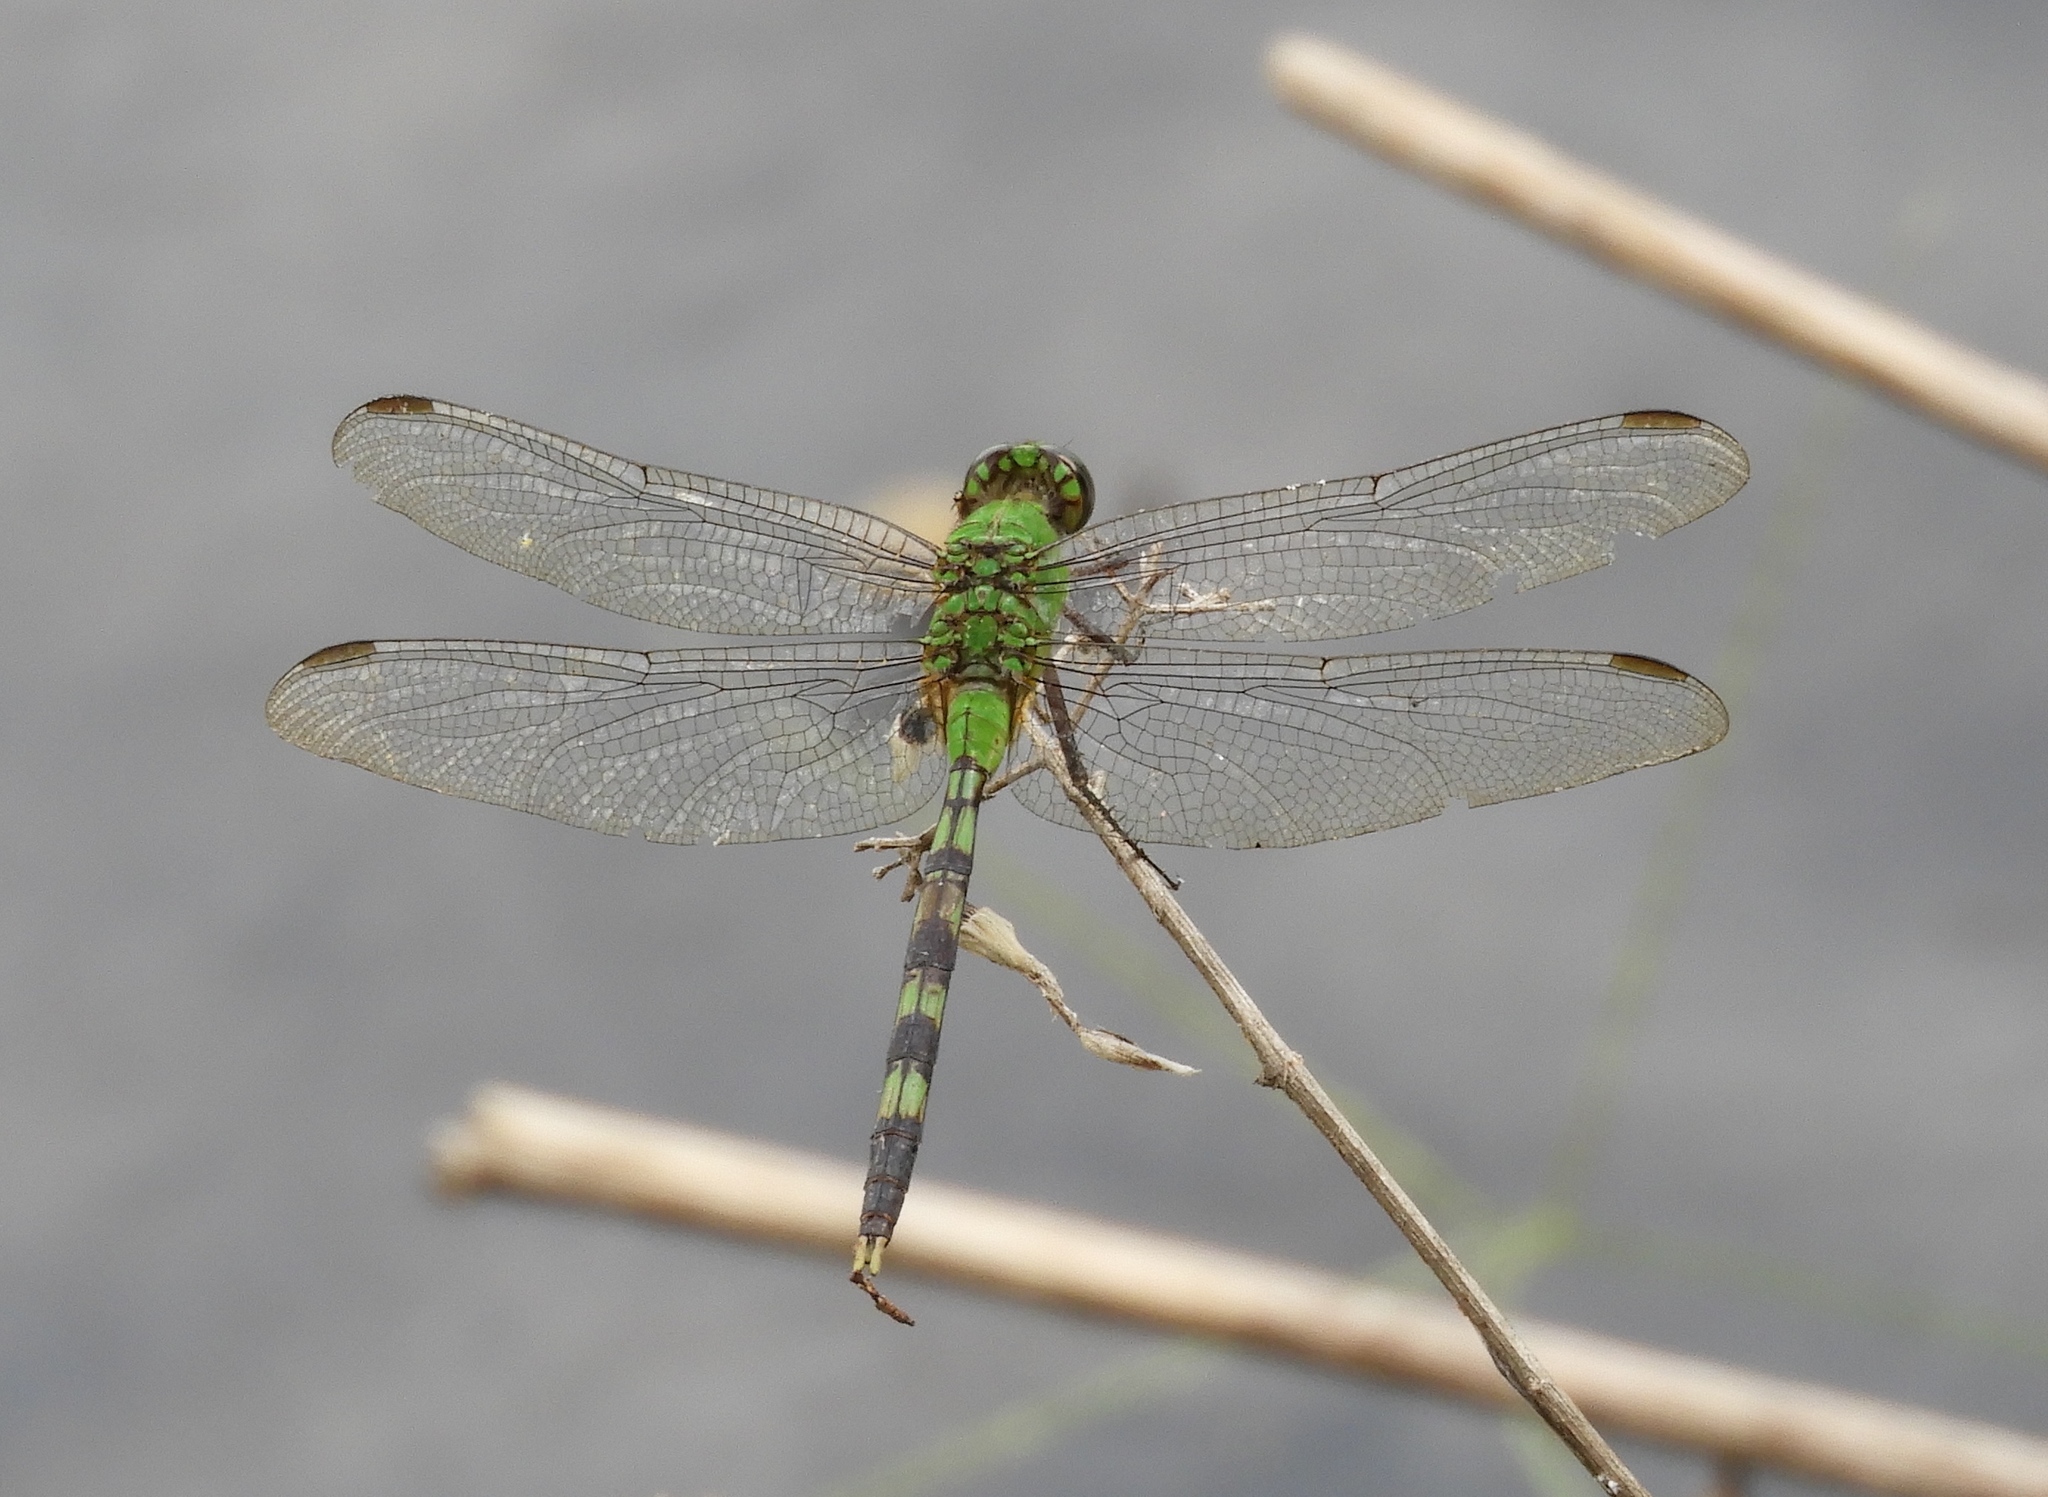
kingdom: Animalia
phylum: Arthropoda
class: Insecta
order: Odonata
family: Libellulidae
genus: Erythemis
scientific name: Erythemis vesiculosa
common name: Great pondhawk
